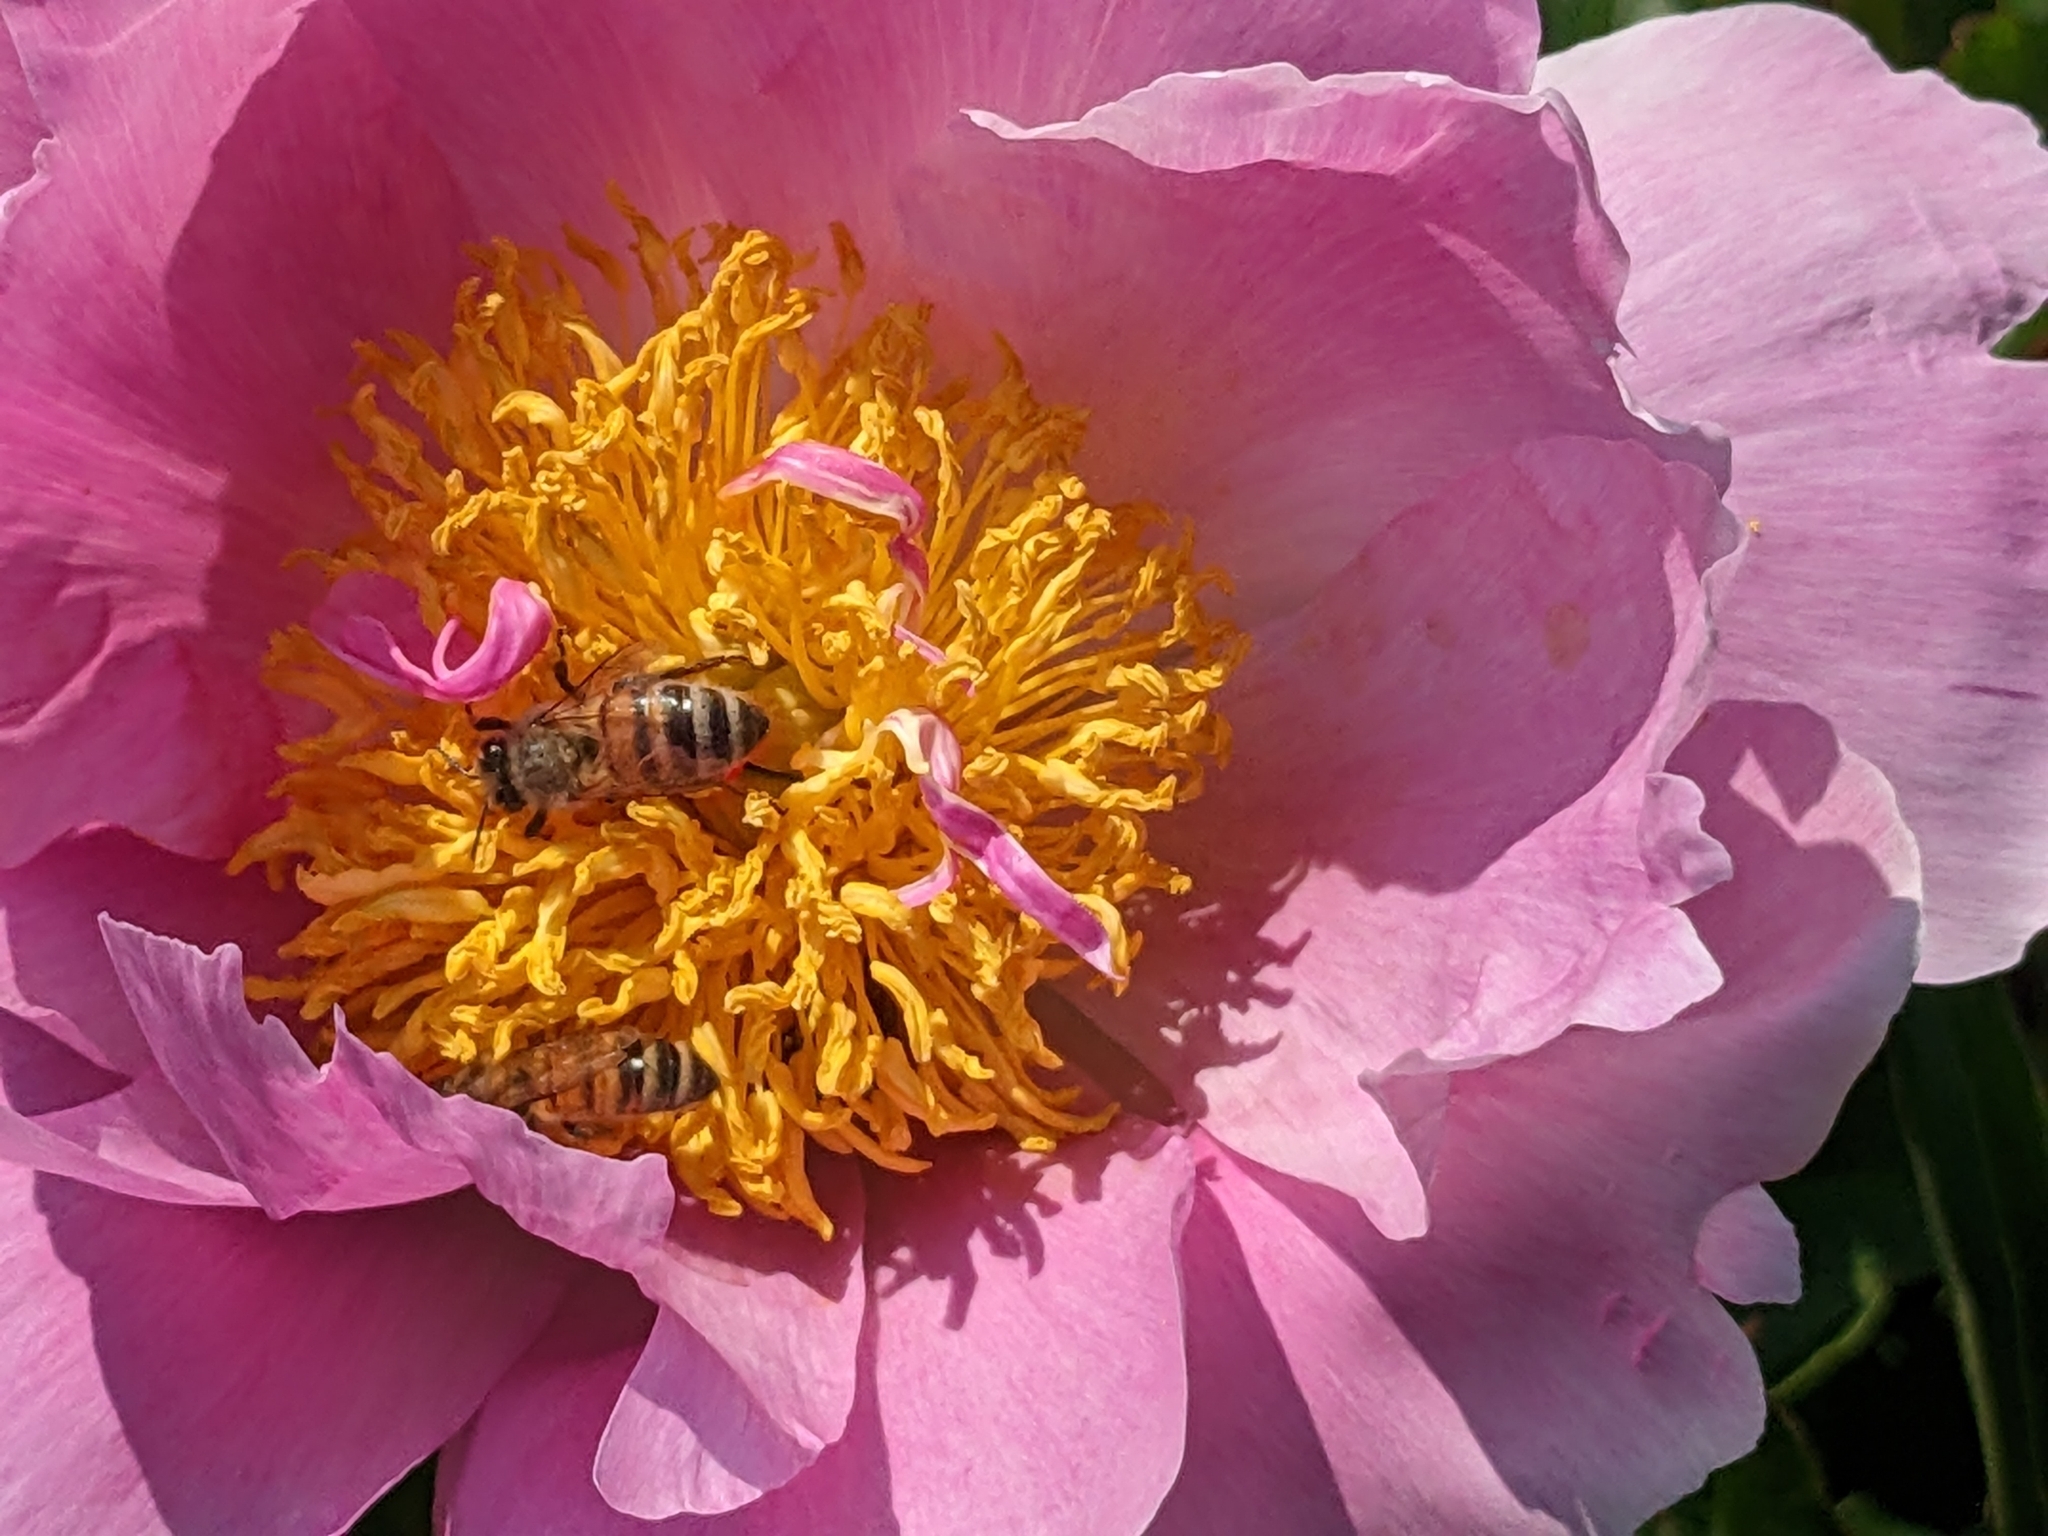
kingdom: Animalia
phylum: Arthropoda
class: Insecta
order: Hymenoptera
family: Apidae
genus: Apis
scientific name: Apis mellifera
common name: Honey bee
